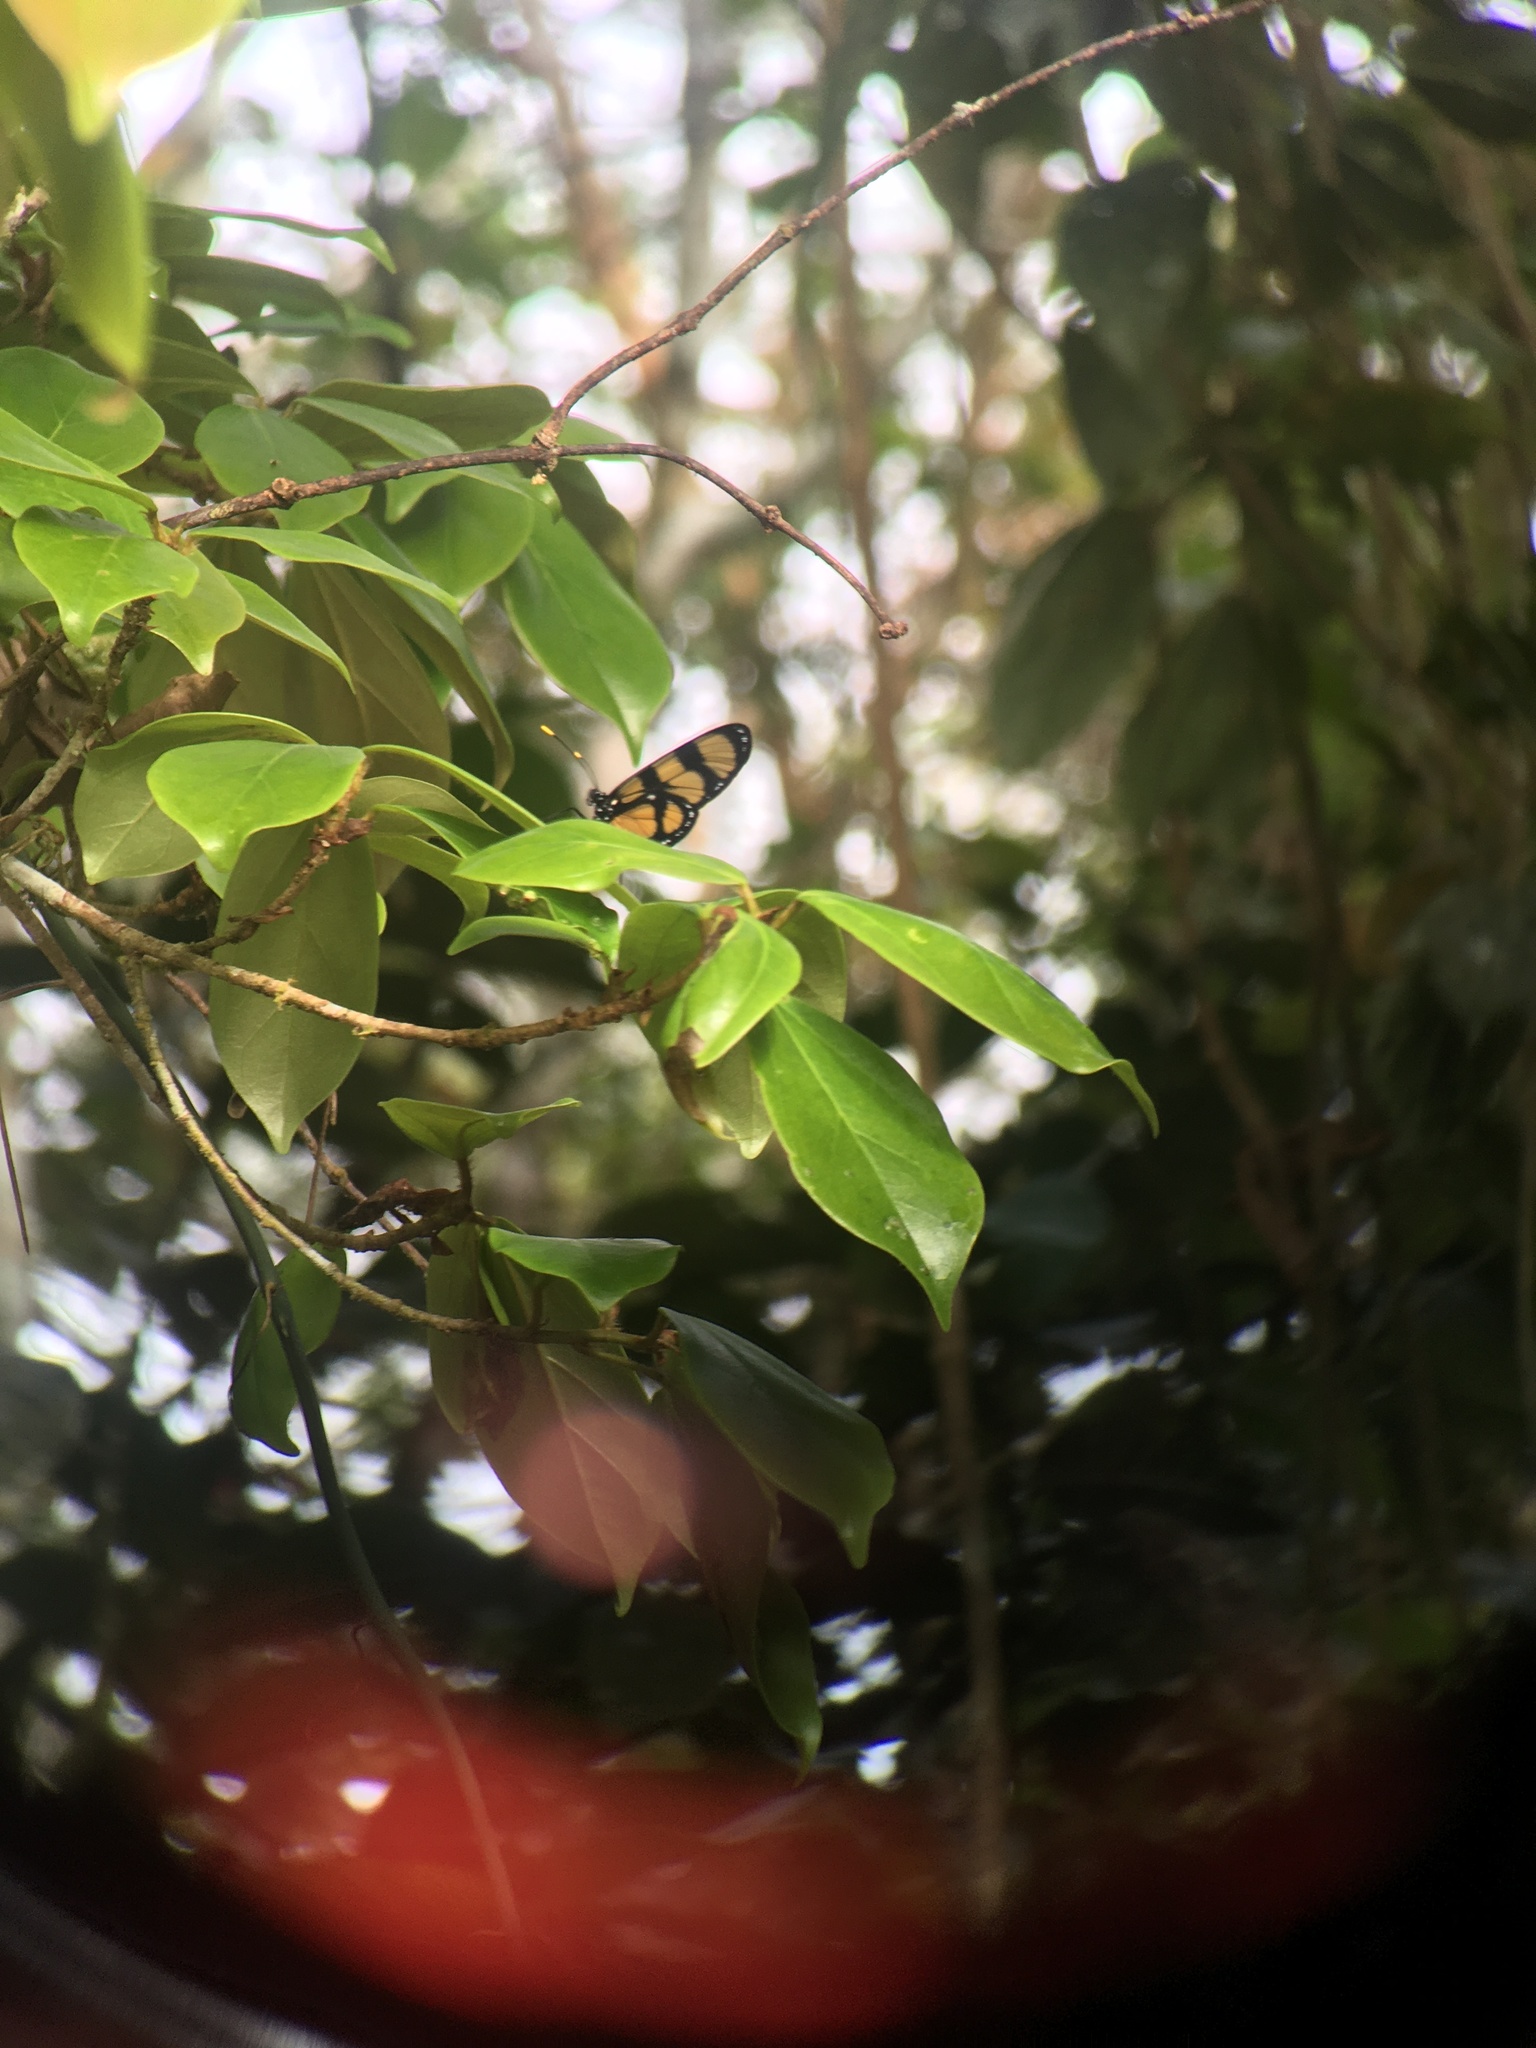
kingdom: Animalia
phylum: Arthropoda
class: Insecta
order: Lepidoptera
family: Nymphalidae
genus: Methona
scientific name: Methona confusa
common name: Confusa tigerwing
